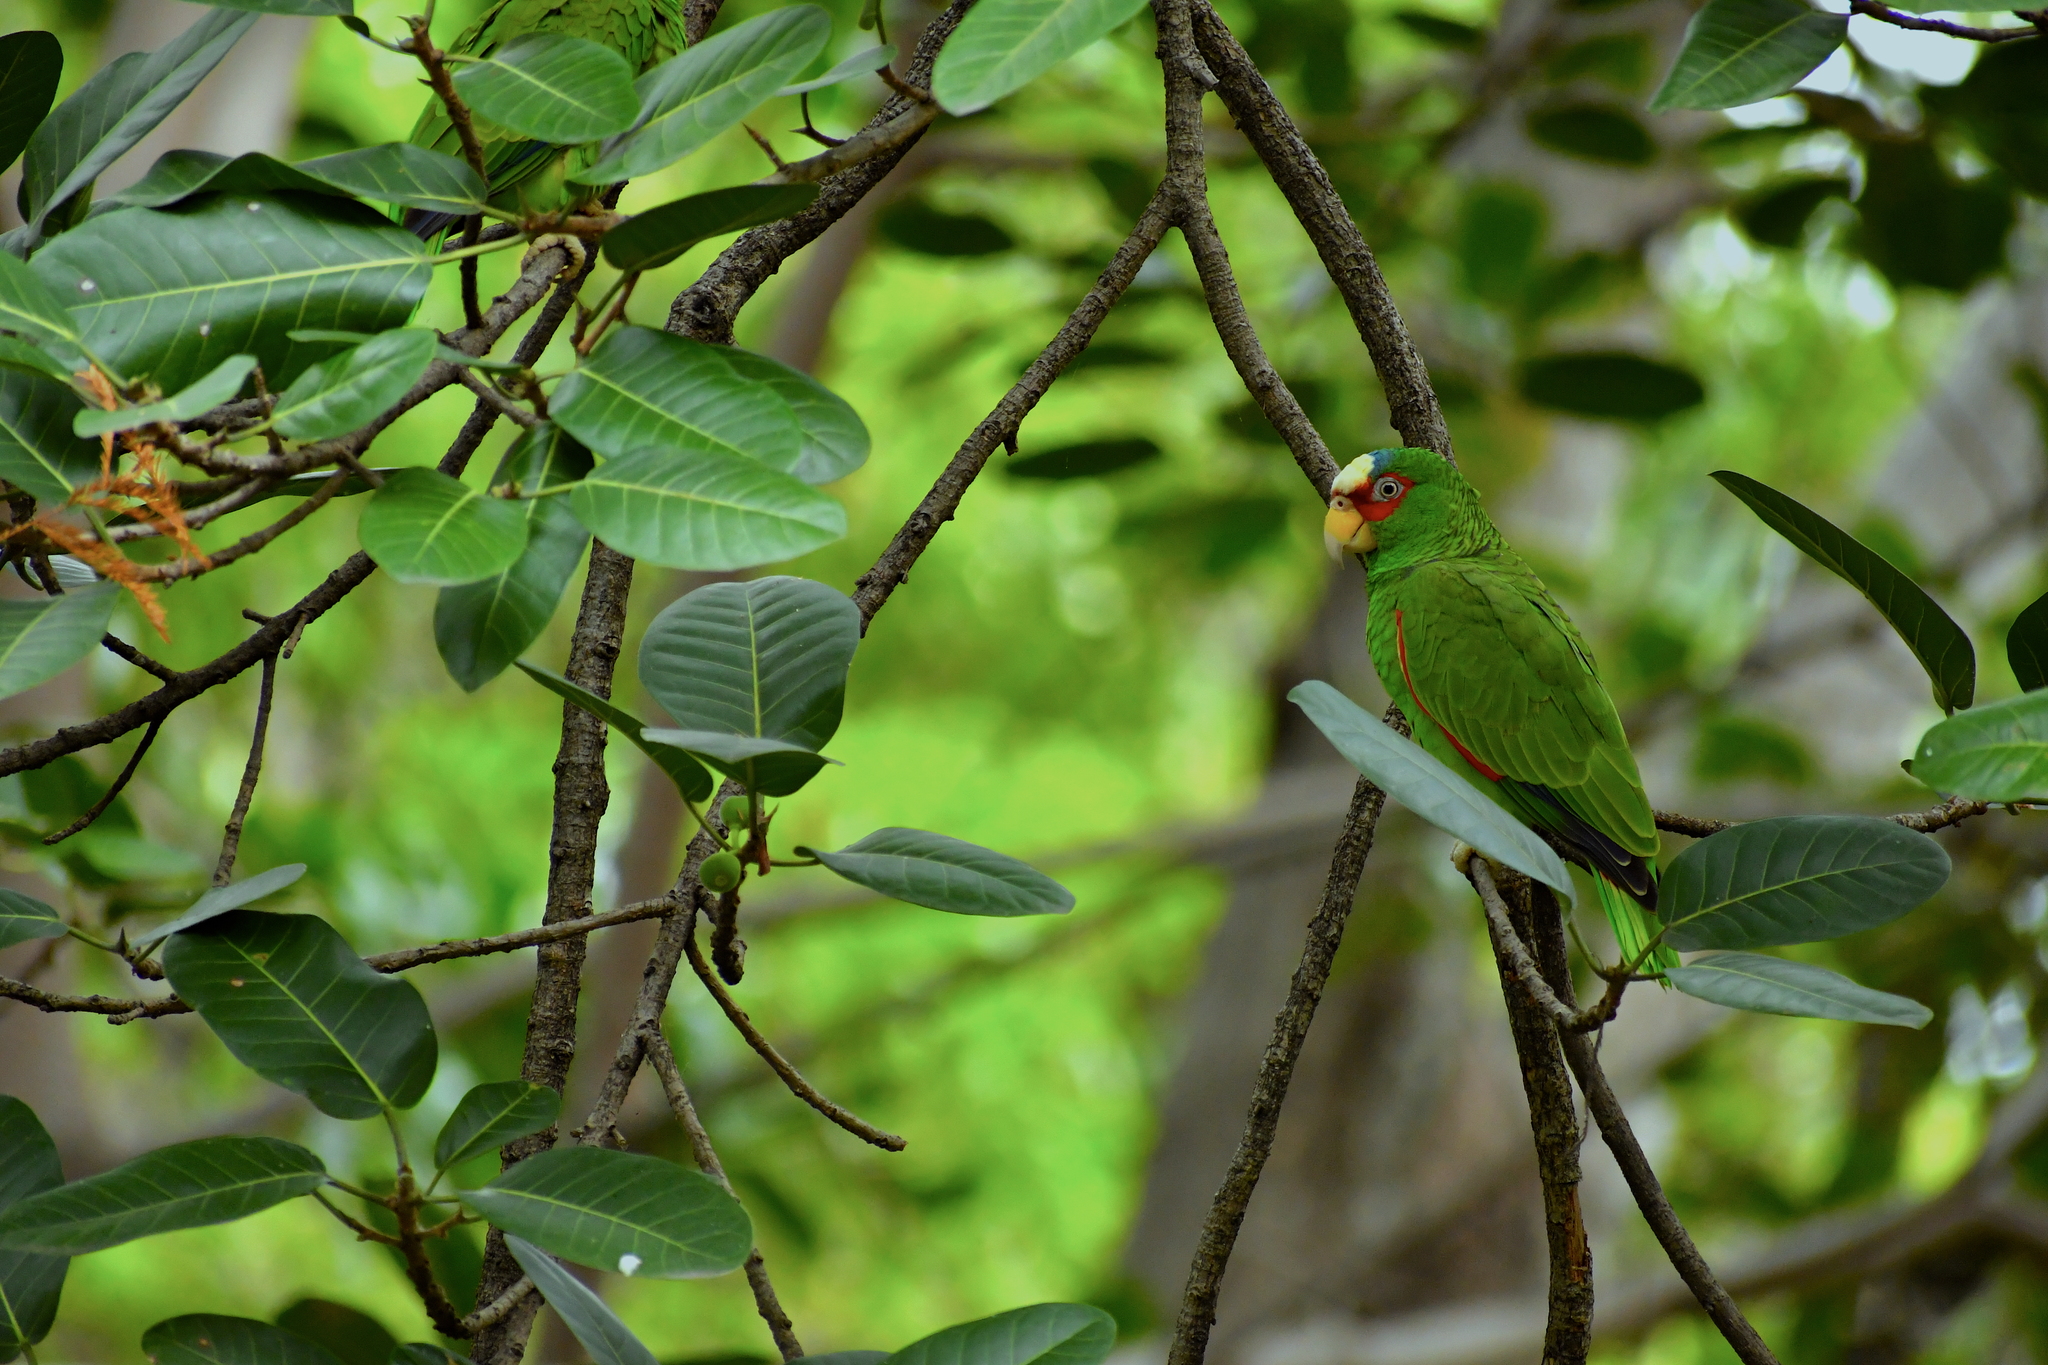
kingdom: Animalia
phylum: Chordata
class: Aves
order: Psittaciformes
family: Psittacidae
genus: Amazona
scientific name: Amazona albifrons
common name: White-fronted amazon
